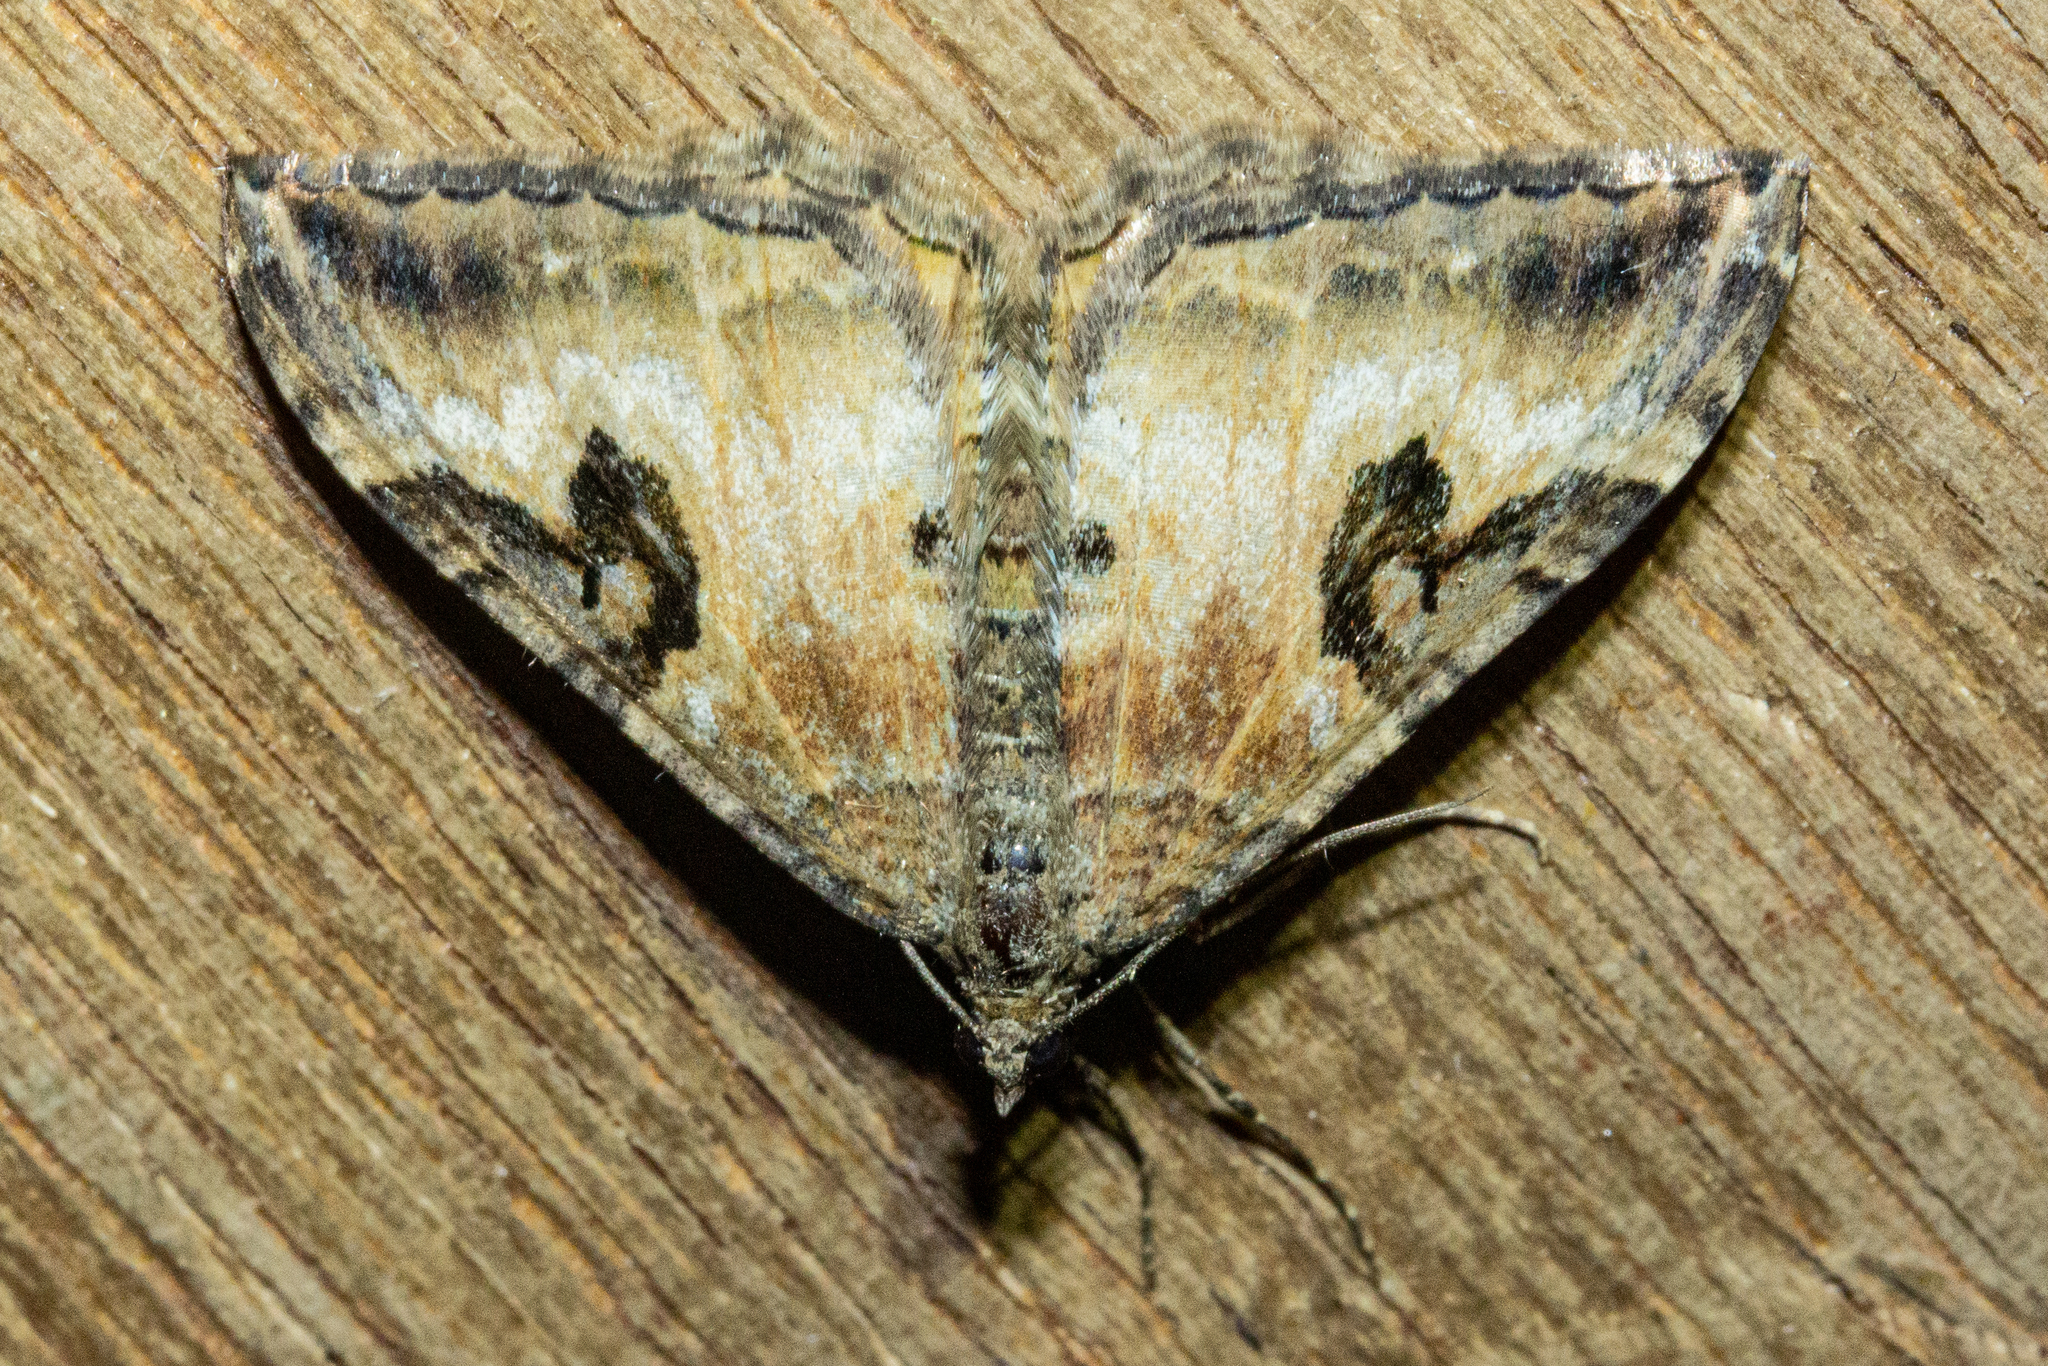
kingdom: Animalia
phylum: Arthropoda
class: Insecta
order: Lepidoptera
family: Geometridae
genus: Hydriomena
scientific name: Hydriomena deltoidata
